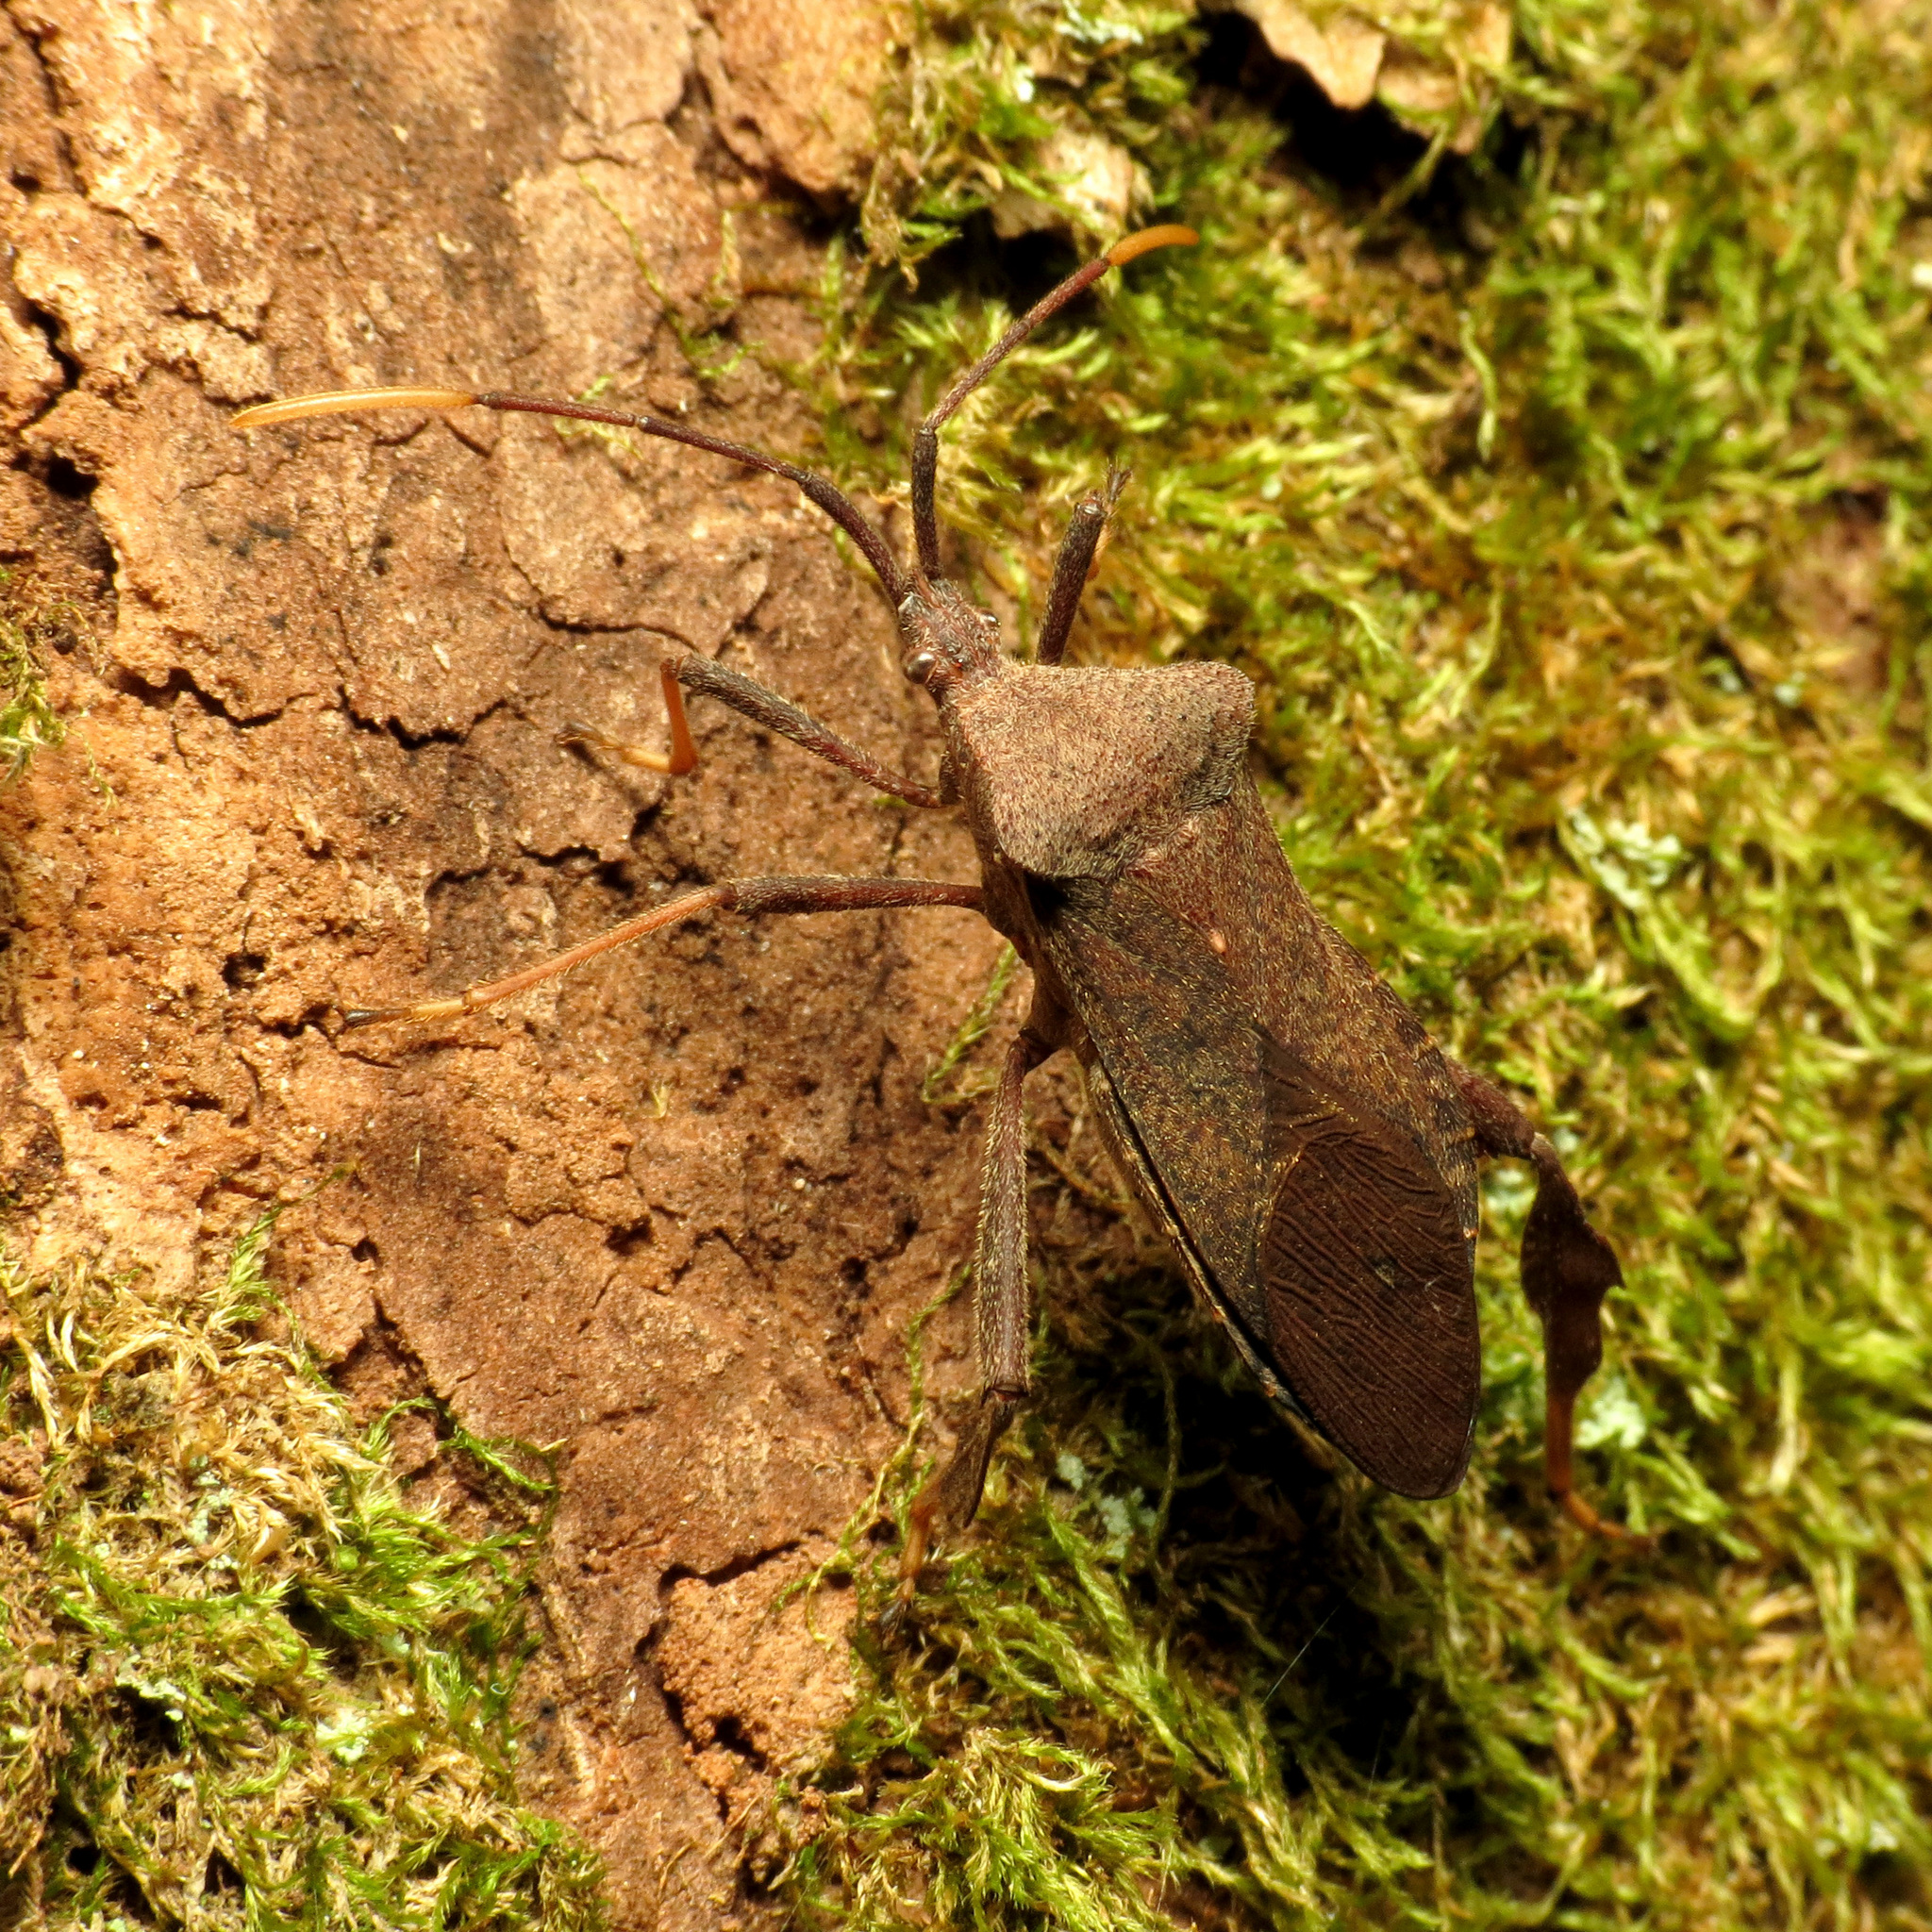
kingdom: Animalia
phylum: Arthropoda
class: Insecta
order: Hemiptera
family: Coreidae
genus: Acanthocephala
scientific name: Acanthocephala terminalis
